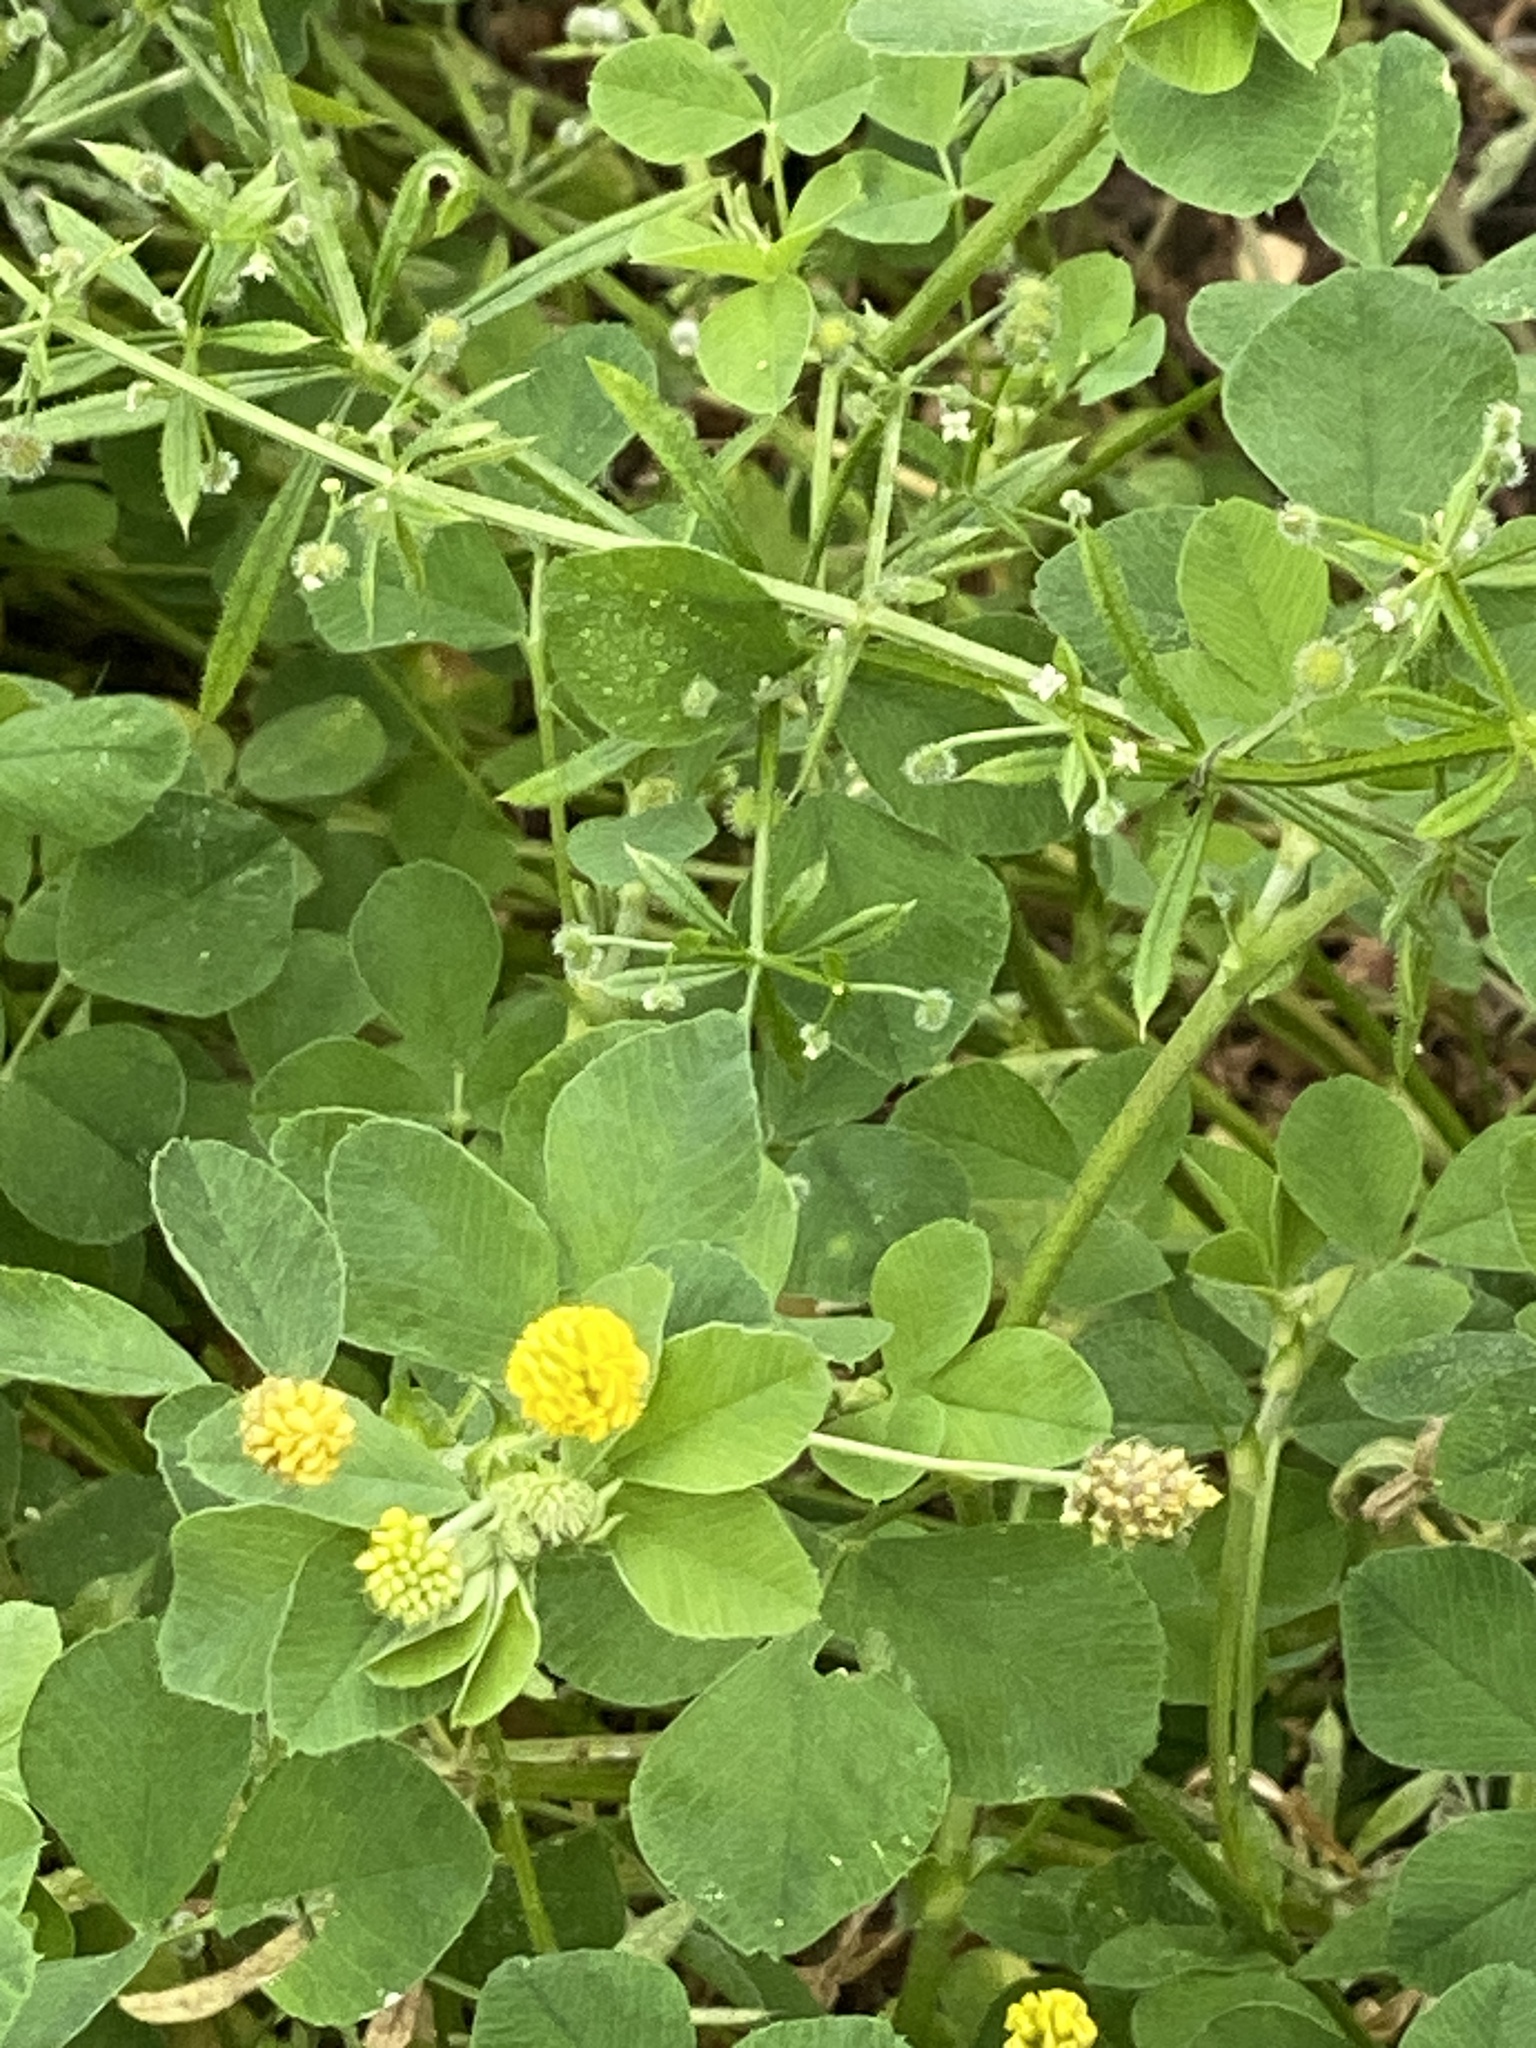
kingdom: Plantae
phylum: Tracheophyta
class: Magnoliopsida
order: Fabales
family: Fabaceae
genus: Medicago
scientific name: Medicago lupulina
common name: Black medick
